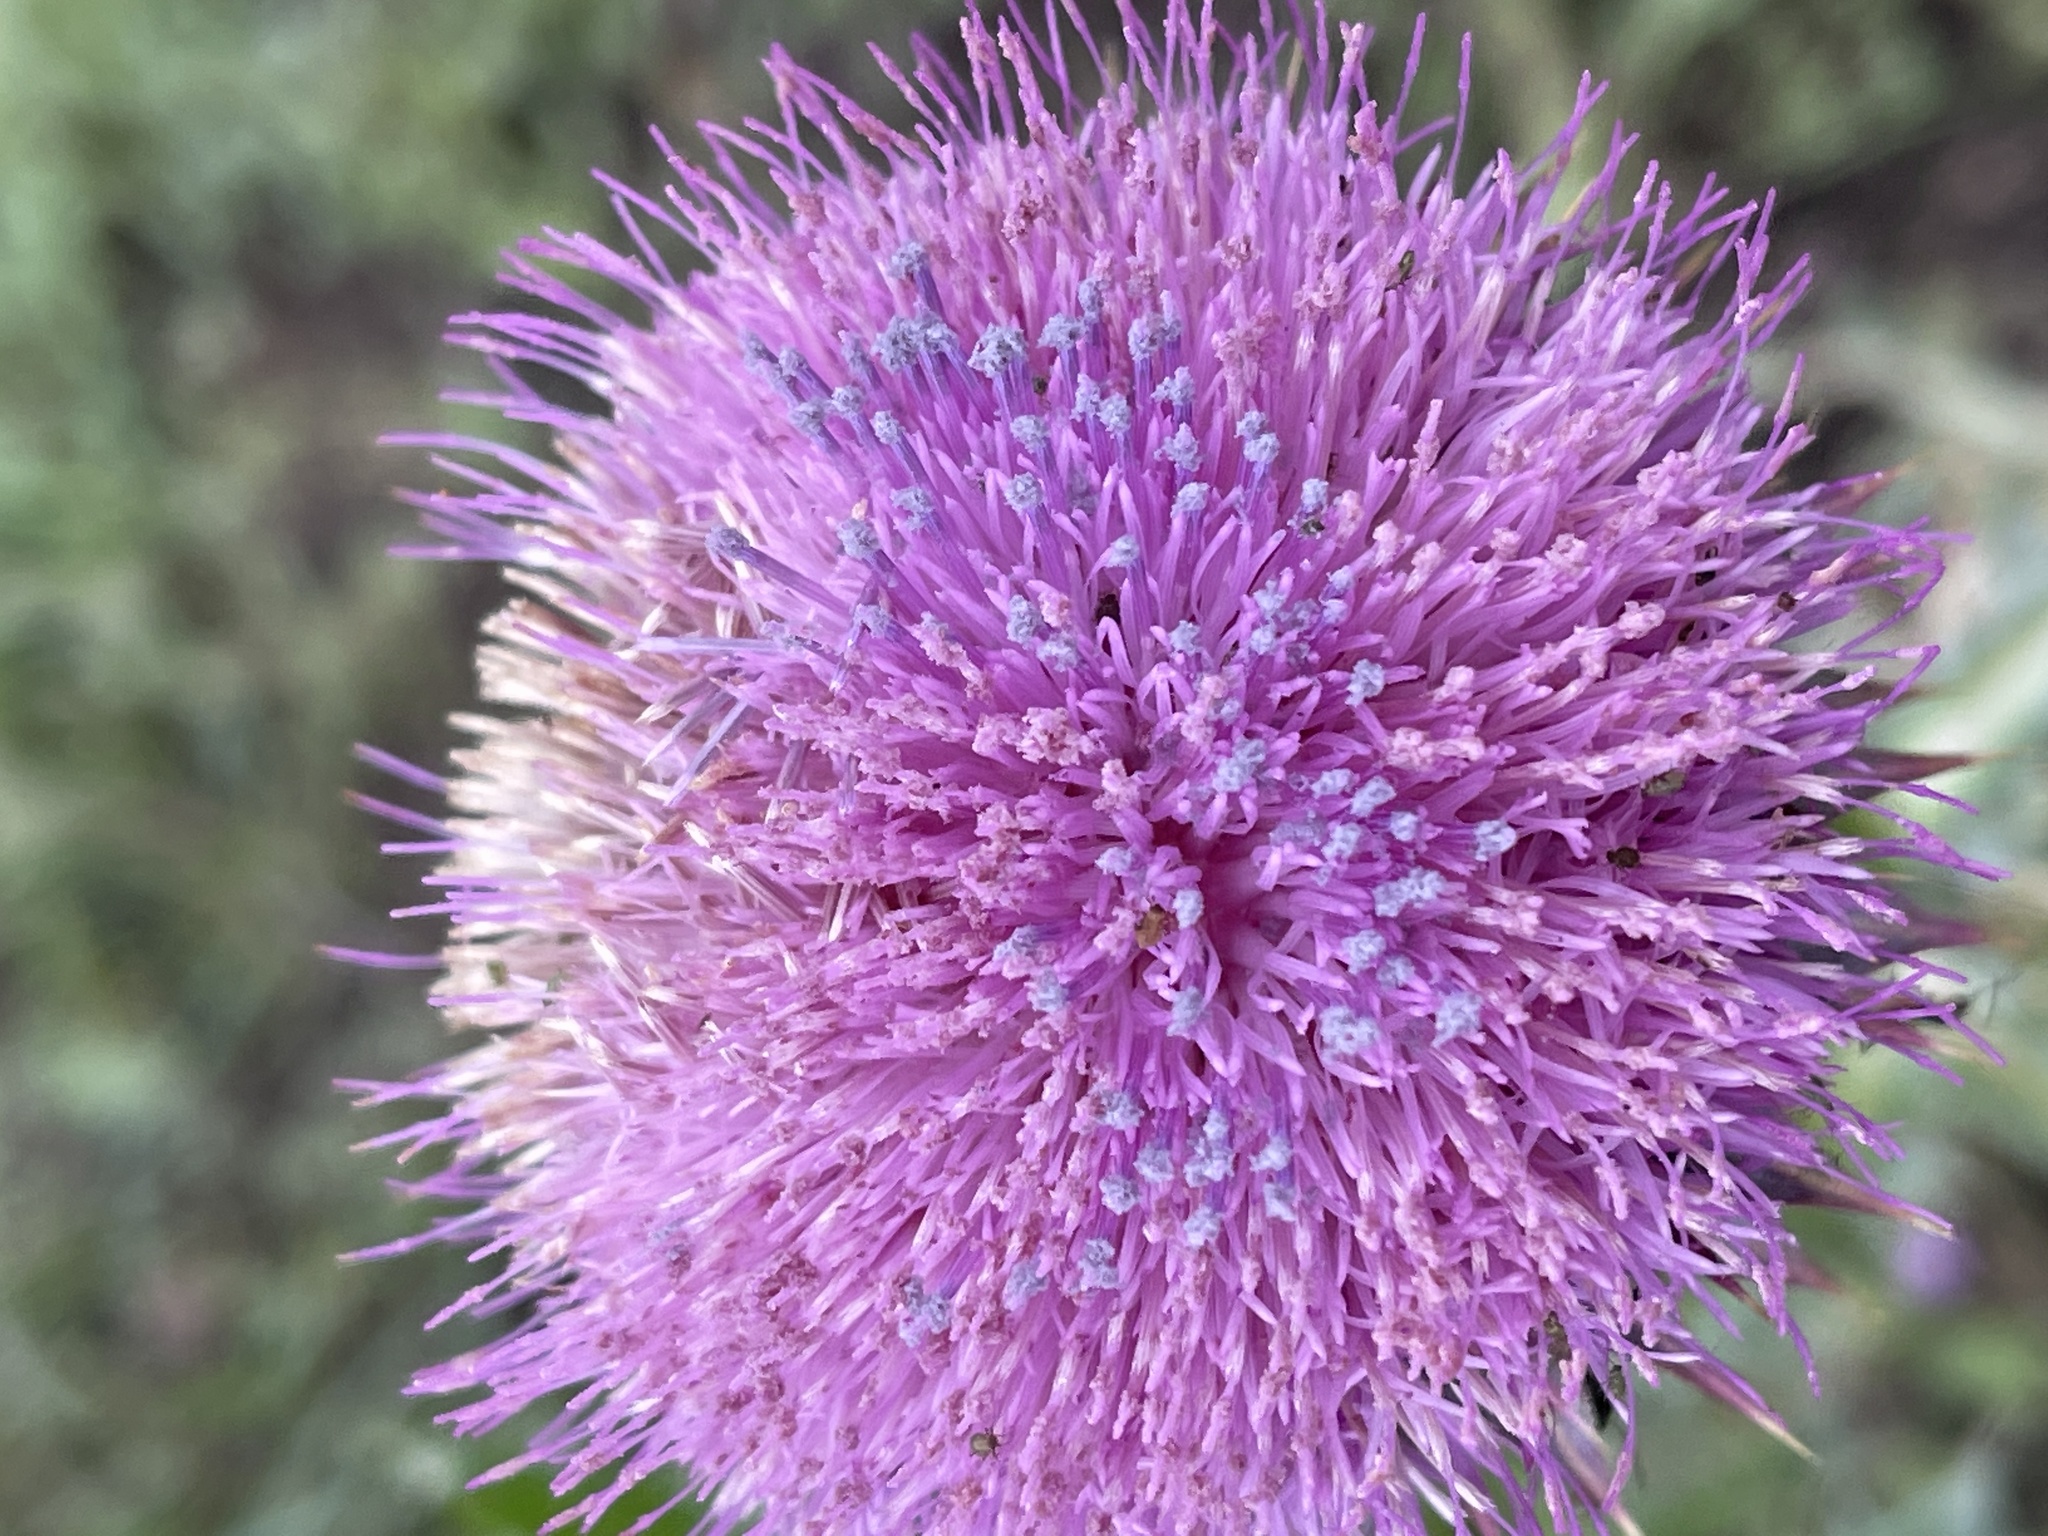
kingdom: Plantae
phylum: Tracheophyta
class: Magnoliopsida
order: Asterales
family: Asteraceae
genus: Carduus
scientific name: Carduus nutans
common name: Musk thistle
